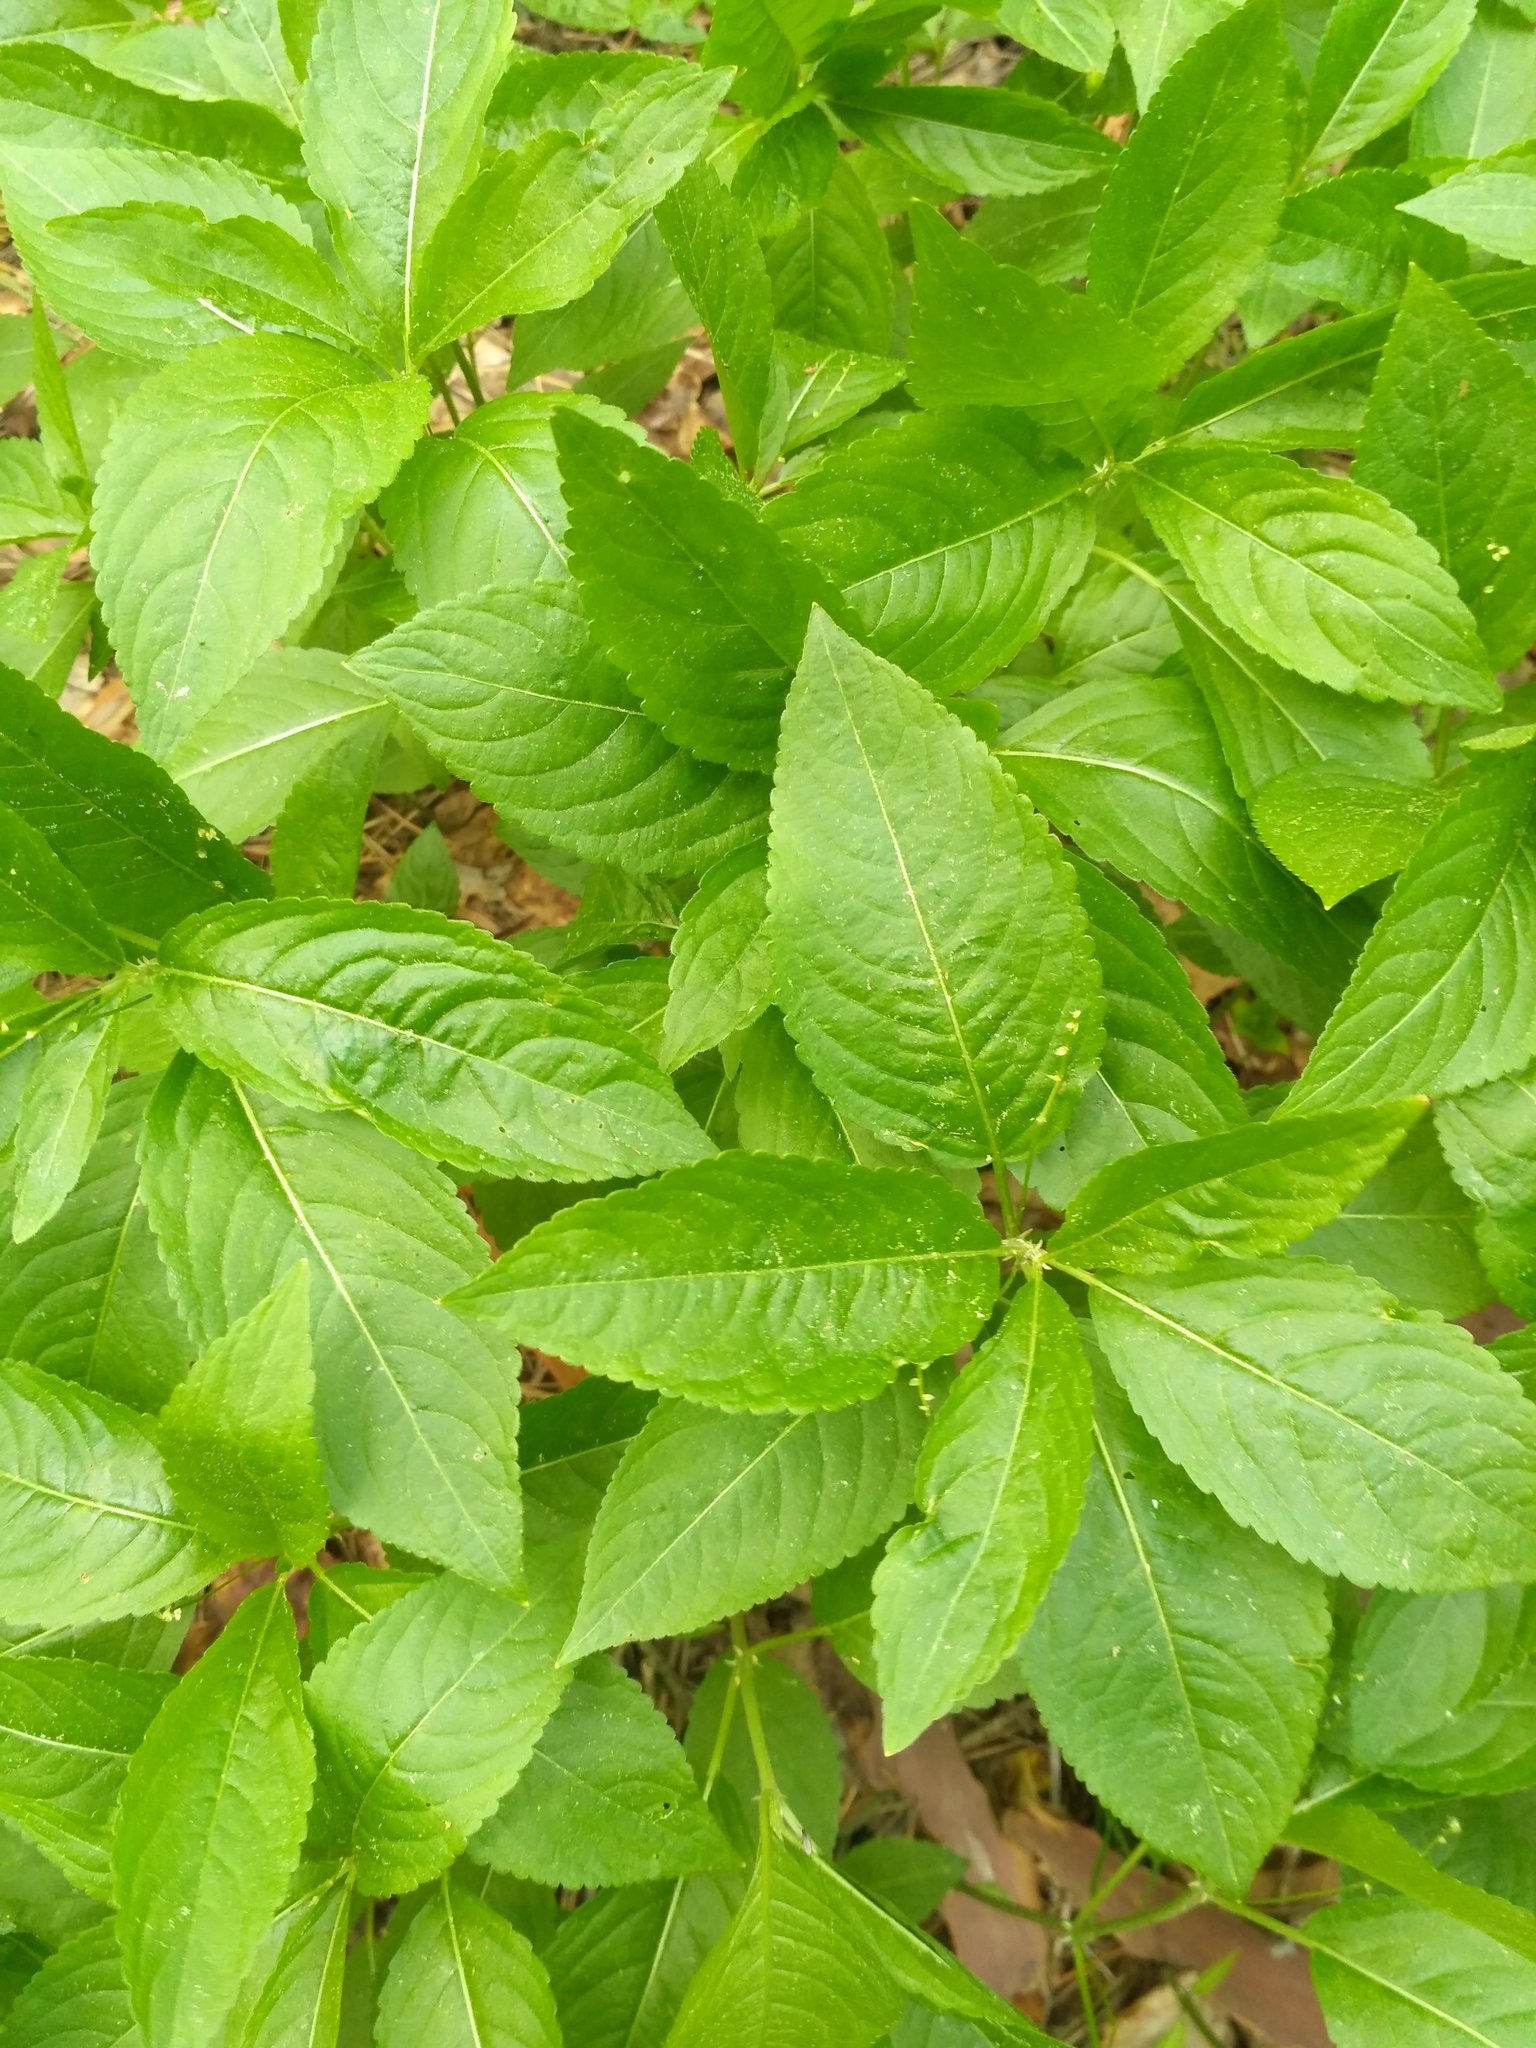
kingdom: Plantae
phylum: Tracheophyta
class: Magnoliopsida
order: Malpighiales
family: Euphorbiaceae
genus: Mercurialis
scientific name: Mercurialis perennis
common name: Dog mercury
